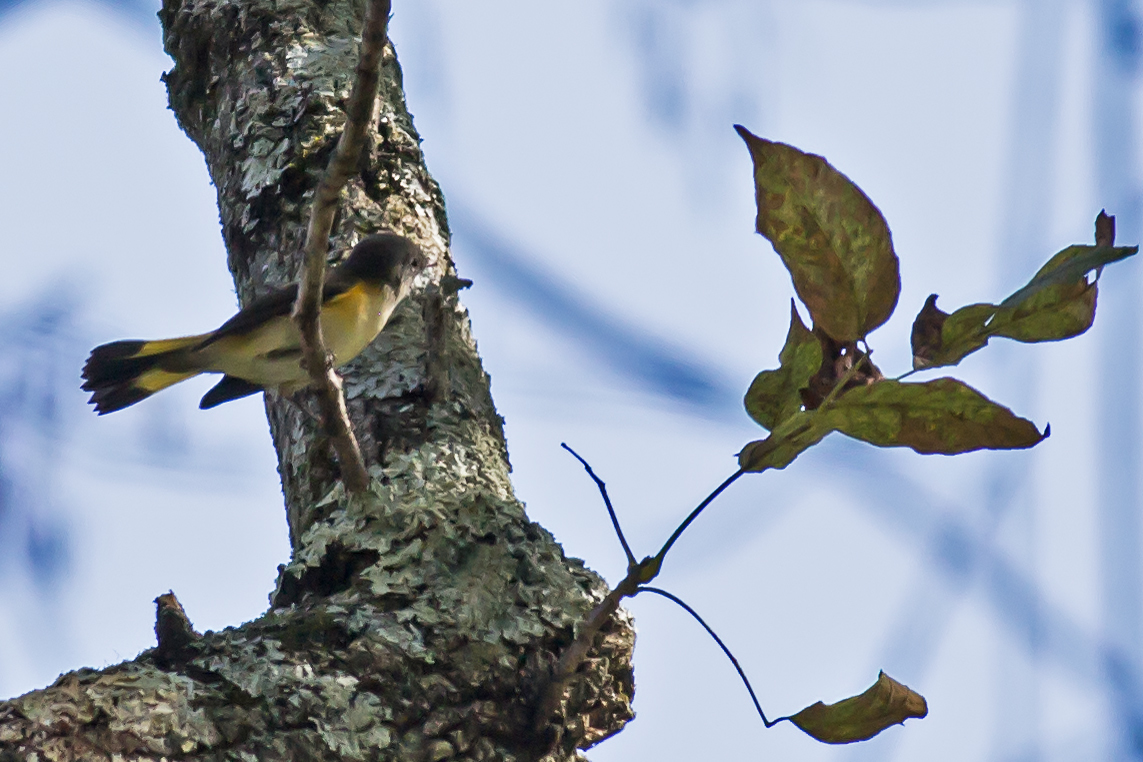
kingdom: Animalia
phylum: Chordata
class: Aves
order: Passeriformes
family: Parulidae
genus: Setophaga
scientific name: Setophaga ruticilla
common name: American redstart
